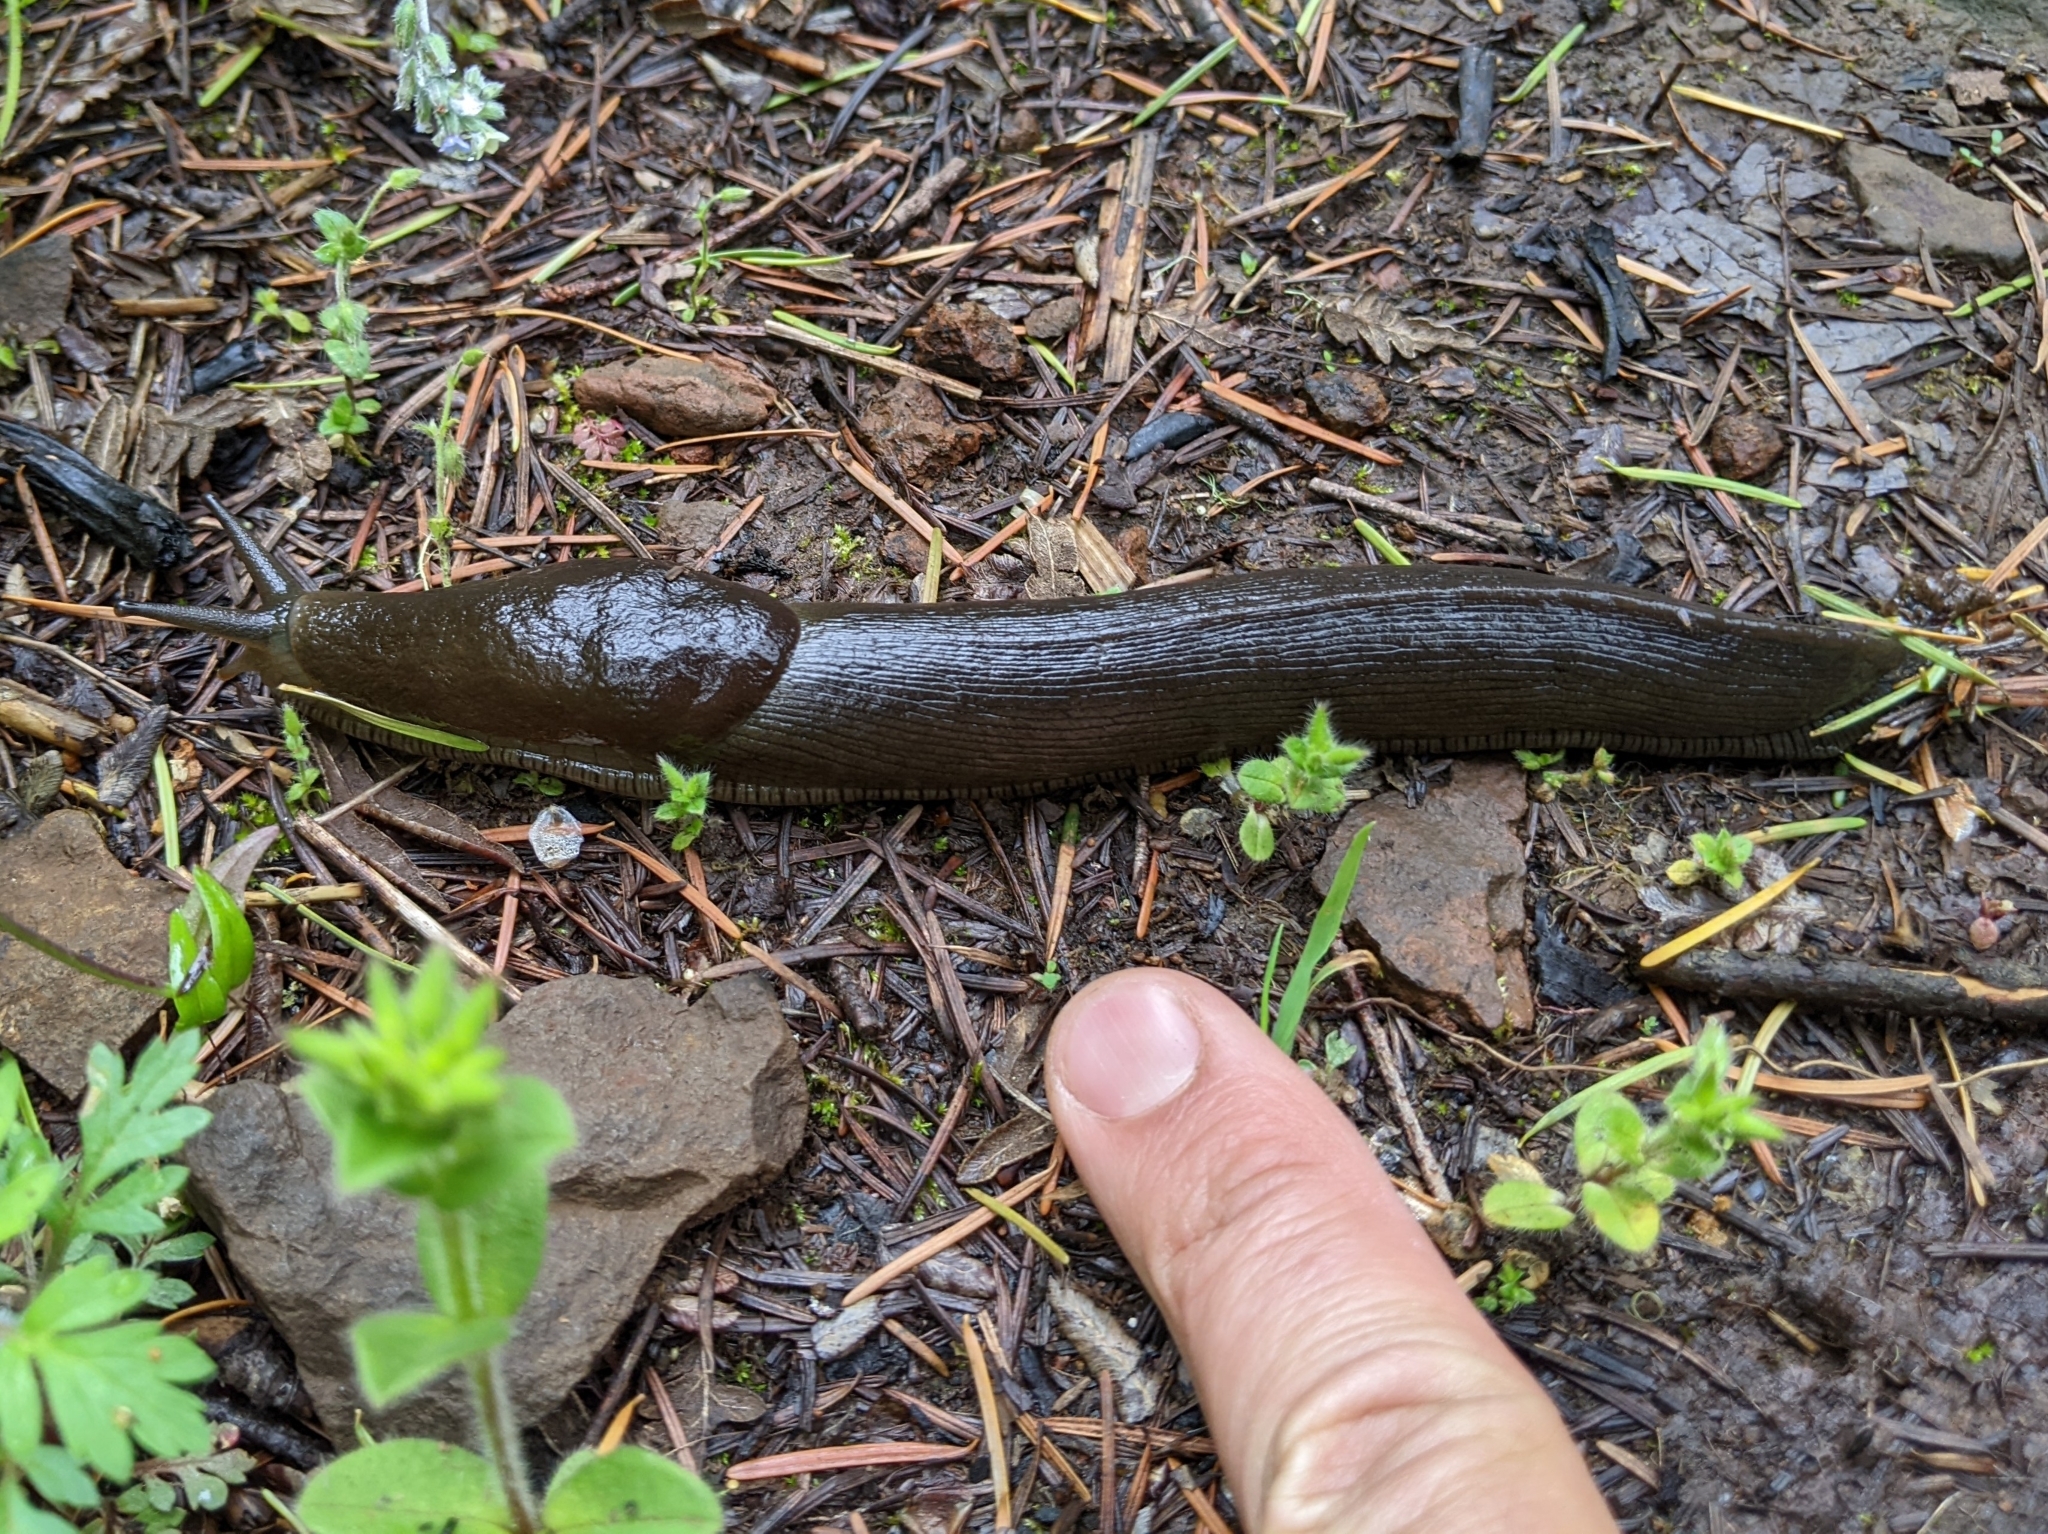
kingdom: Animalia
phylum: Mollusca
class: Gastropoda
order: Stylommatophora
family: Ariolimacidae
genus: Ariolimax
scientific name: Ariolimax columbianus
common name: Pacific banana slug
